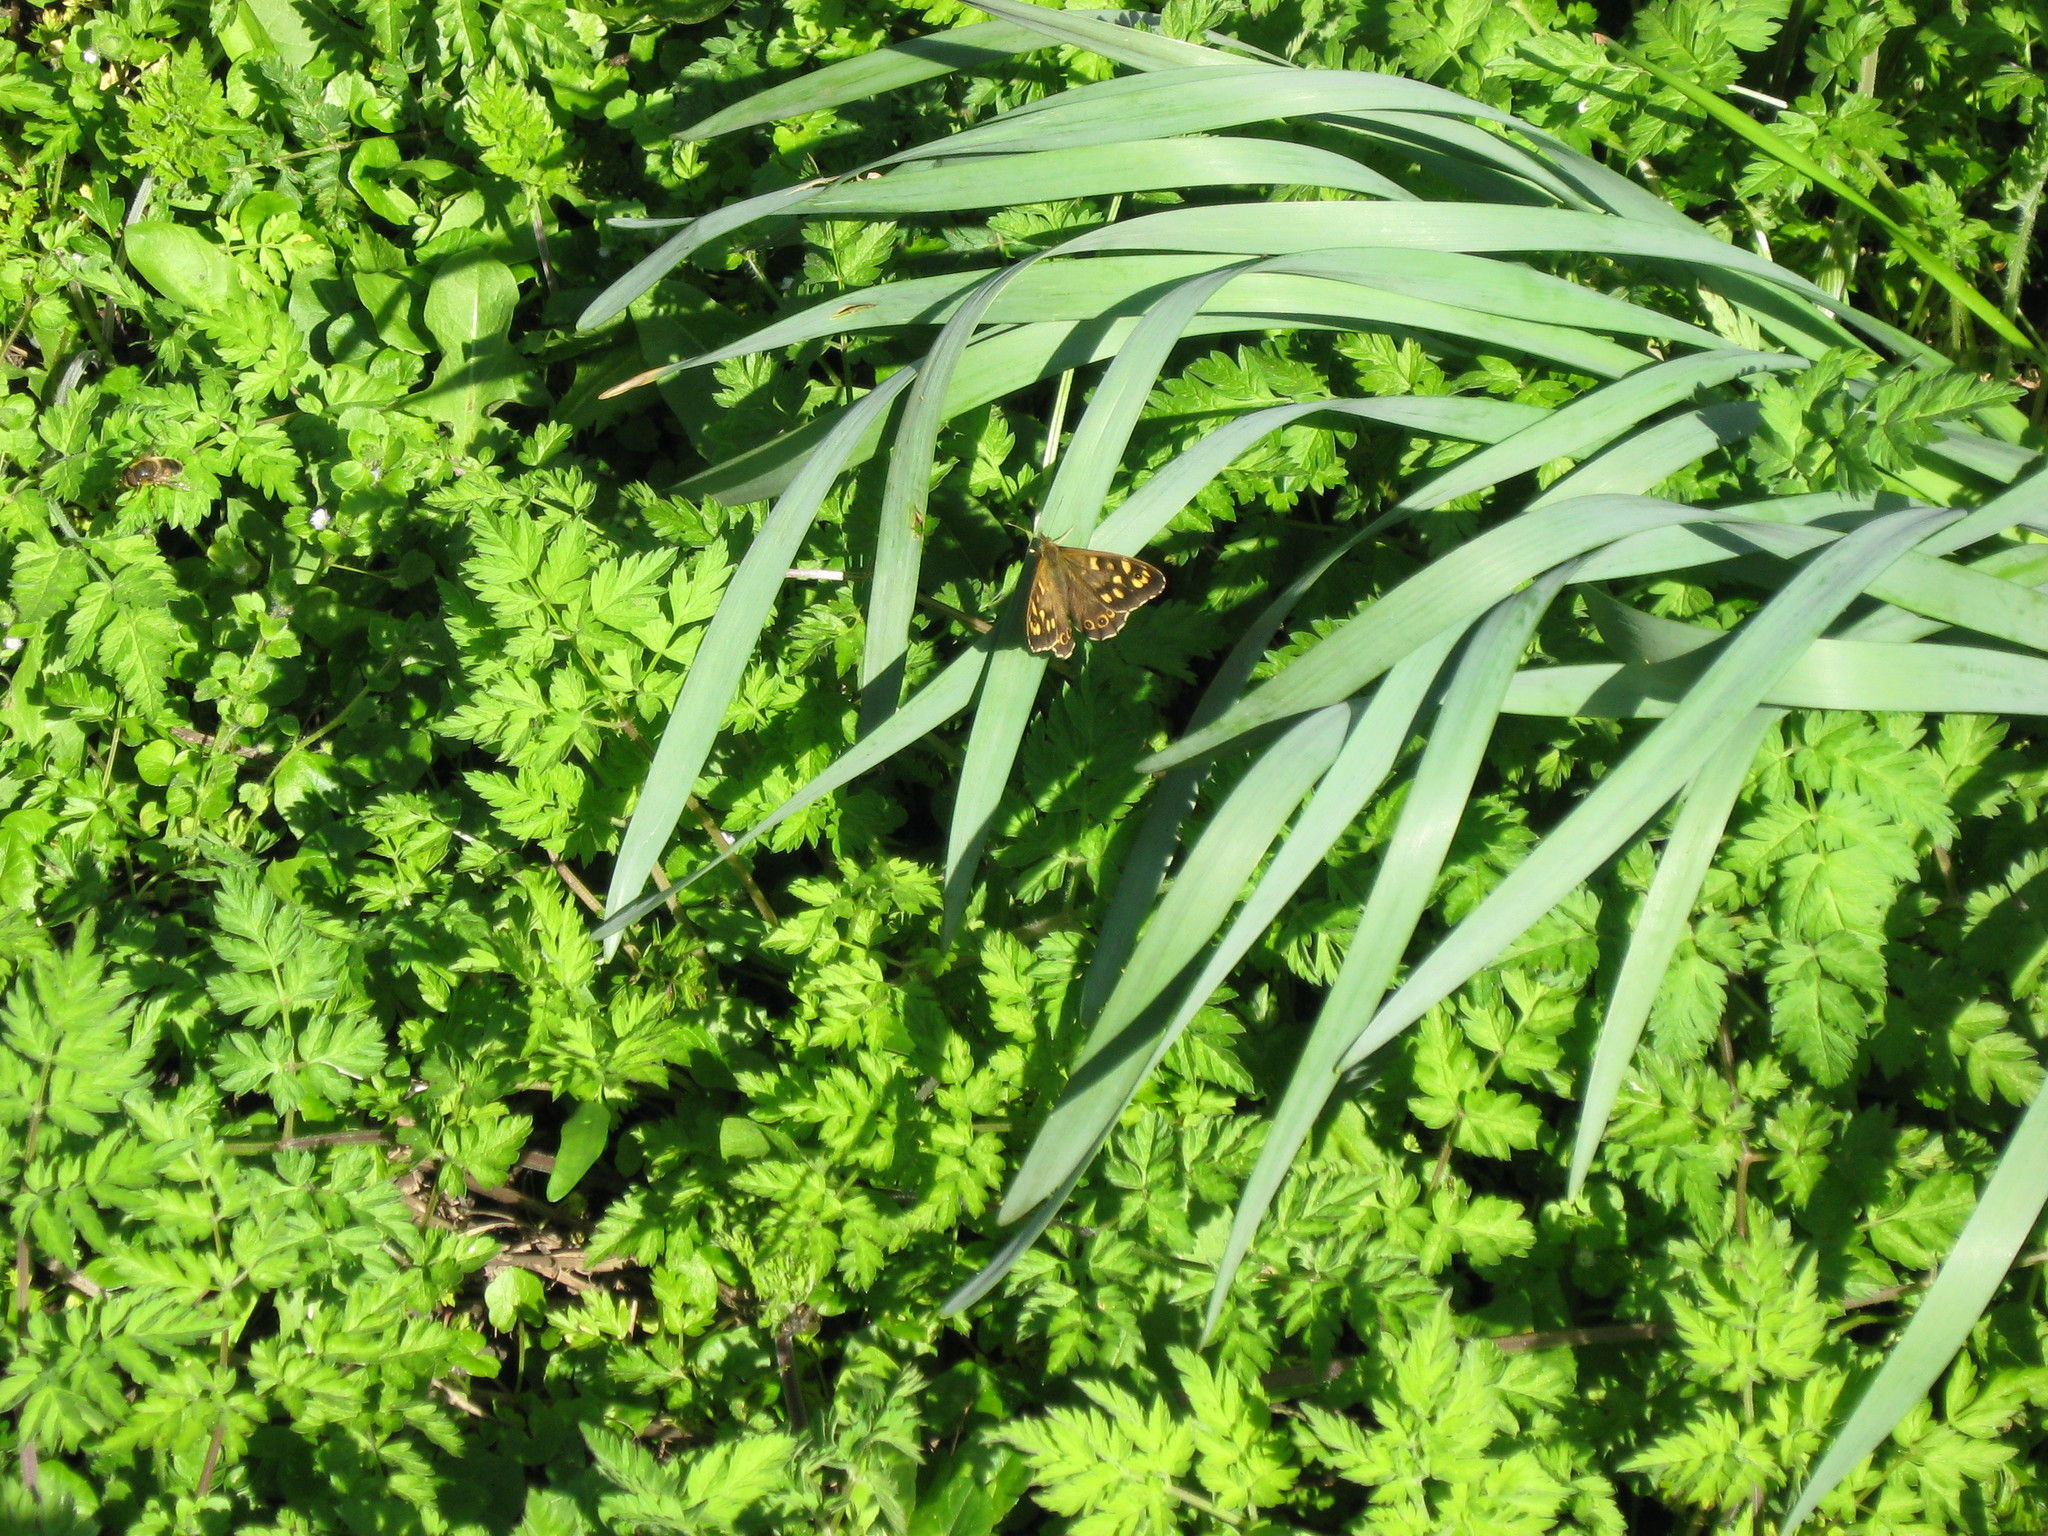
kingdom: Animalia
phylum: Arthropoda
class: Insecta
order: Lepidoptera
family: Nymphalidae
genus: Pararge
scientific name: Pararge aegeria
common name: Speckled wood
